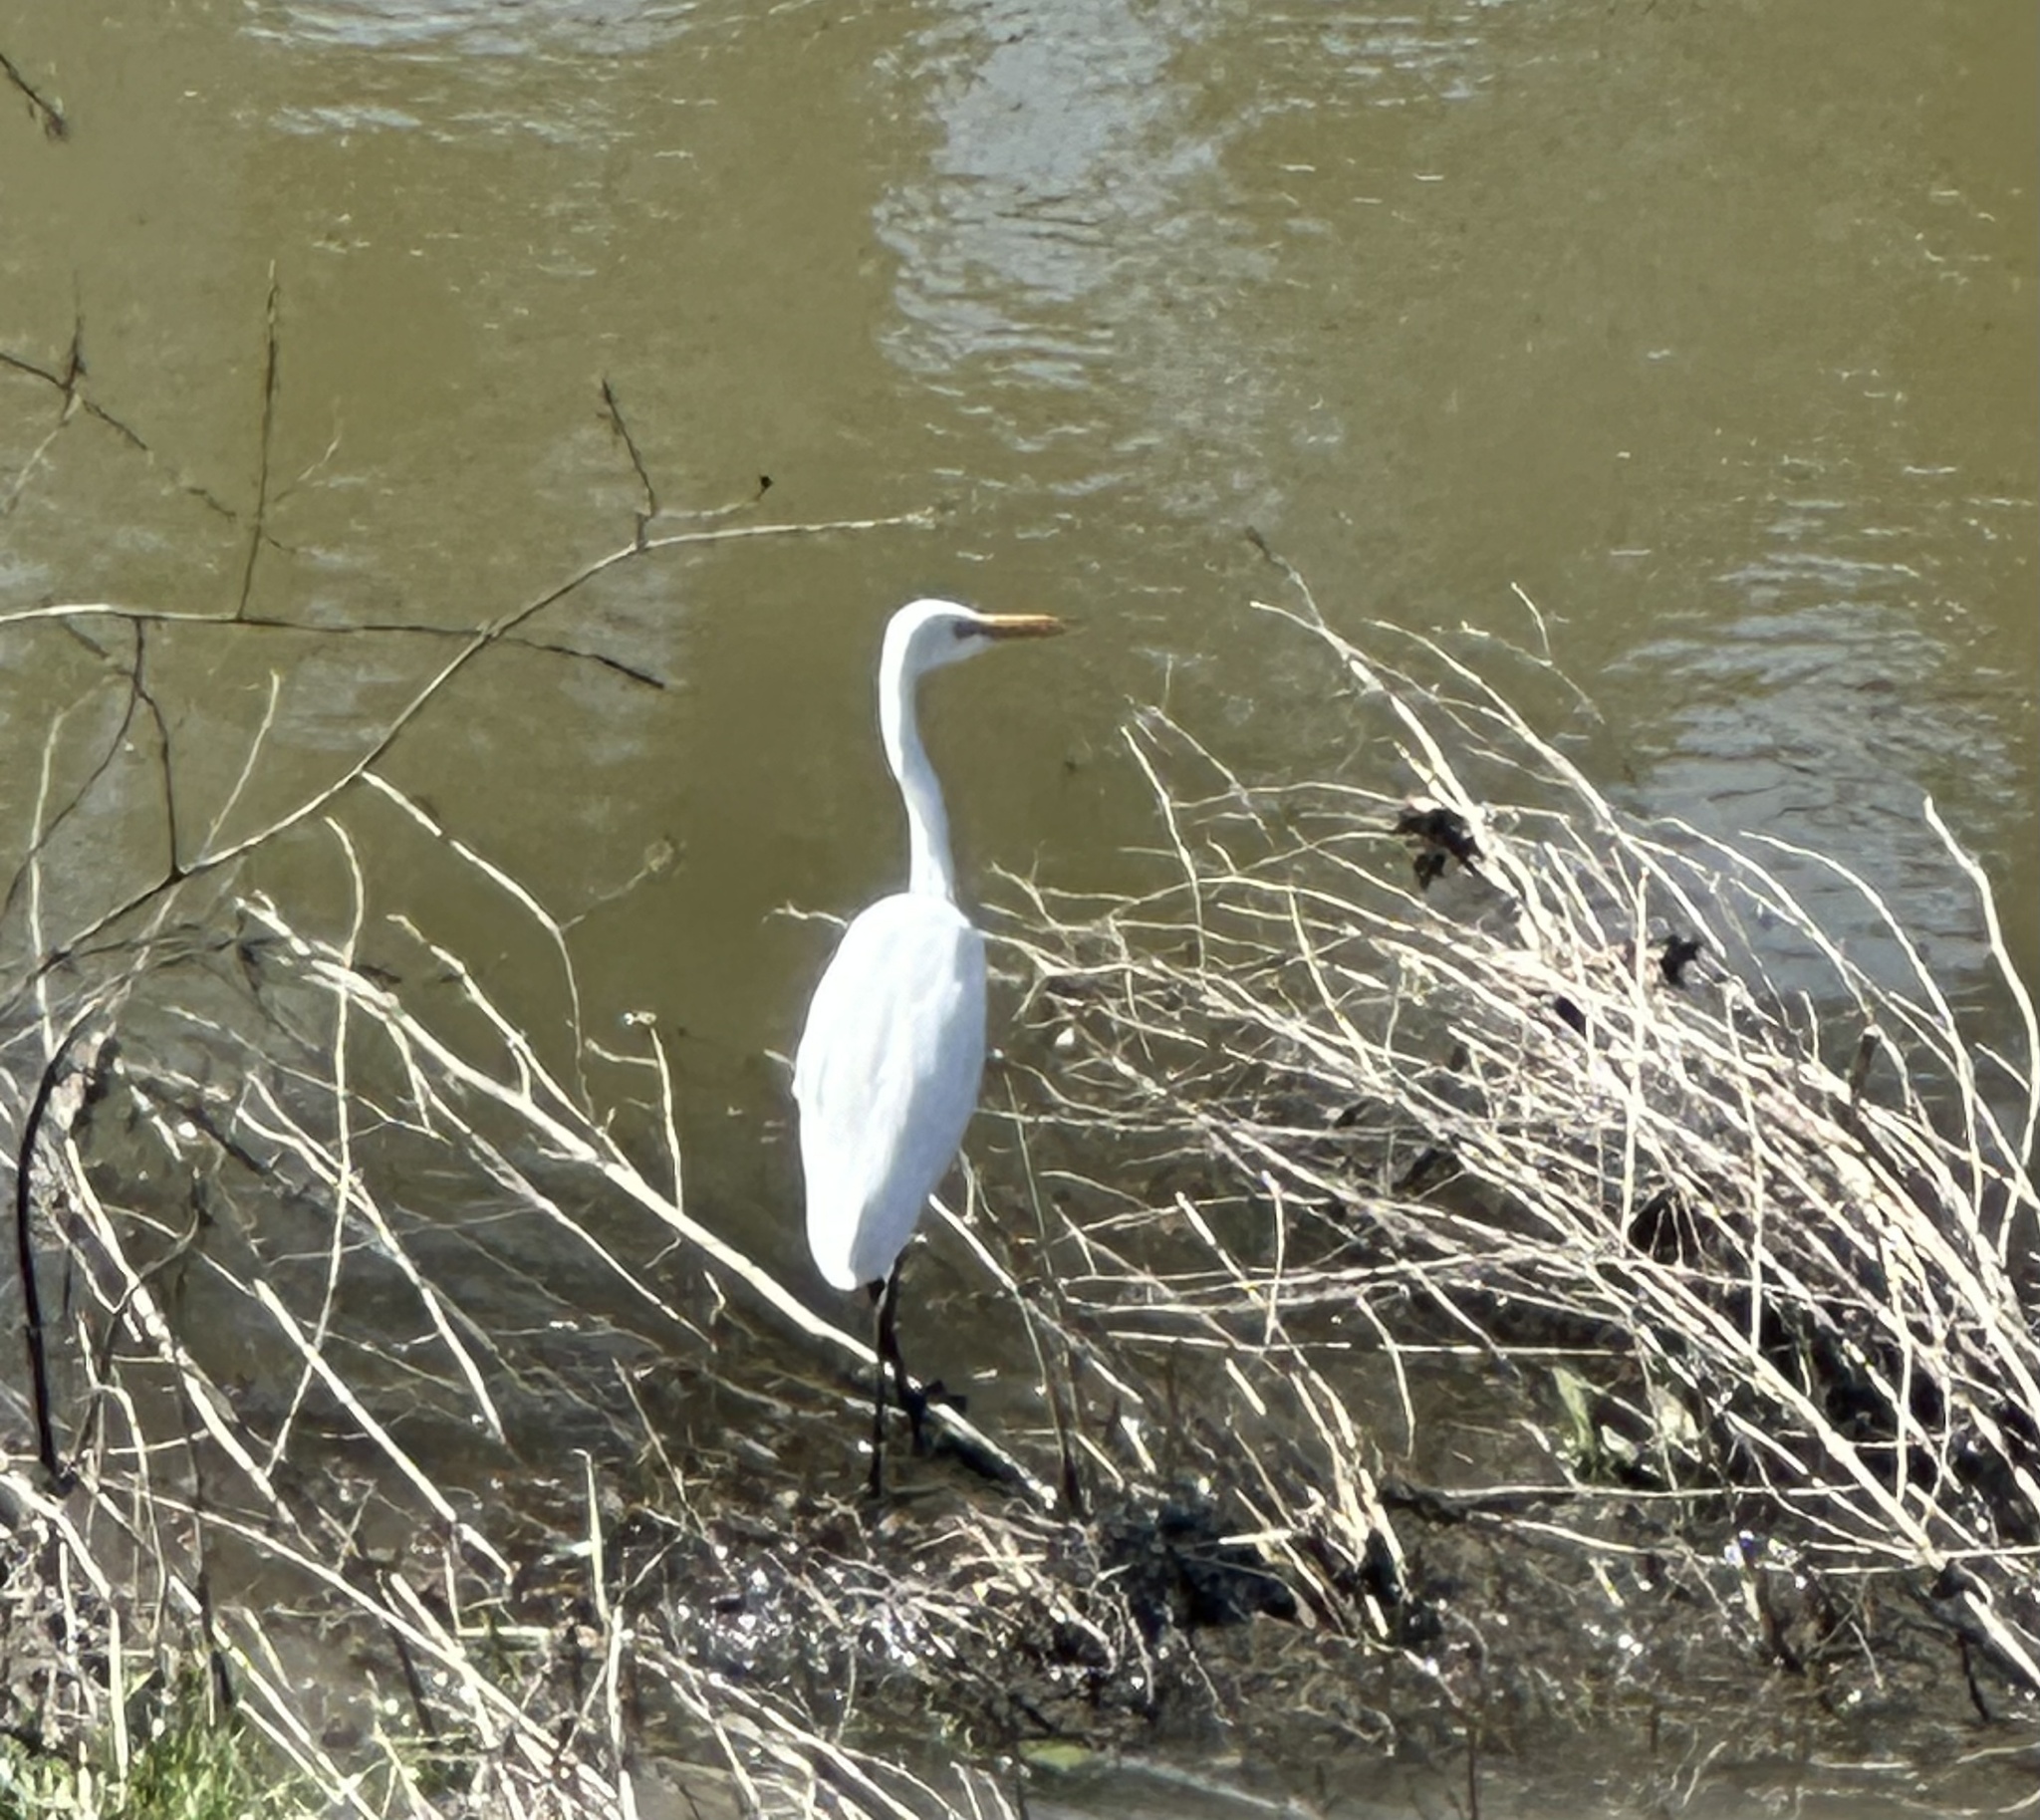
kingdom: Animalia
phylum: Chordata
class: Aves
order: Pelecaniformes
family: Ardeidae
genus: Ardea
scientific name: Ardea alba
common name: Great egret
